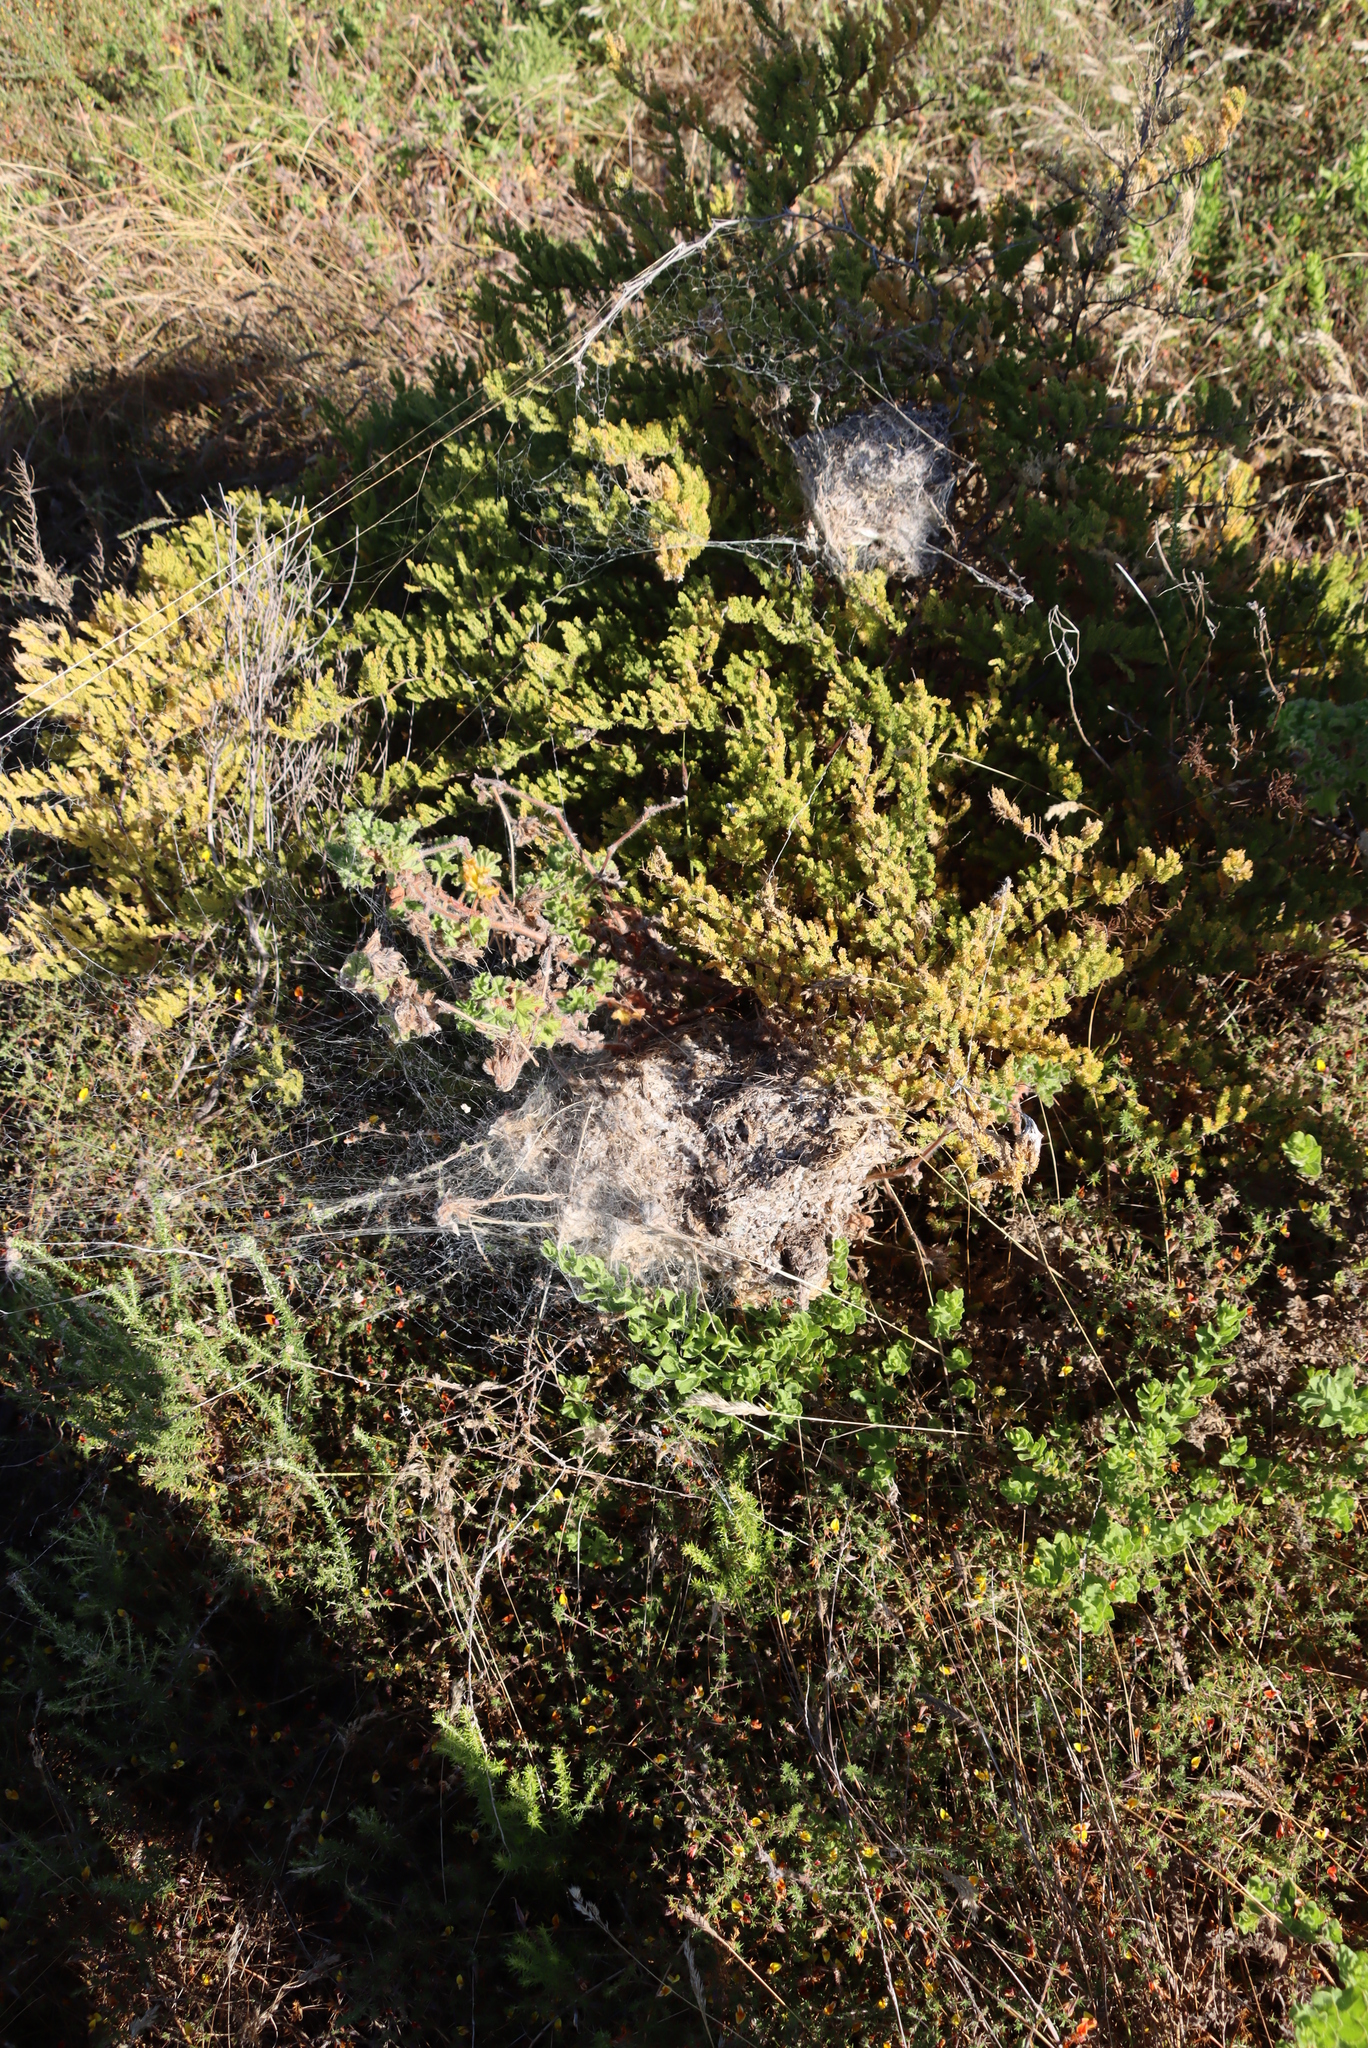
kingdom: Animalia
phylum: Arthropoda
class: Arachnida
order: Araneae
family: Eresidae
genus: Stegodyphus
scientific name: Stegodyphus dumicola
